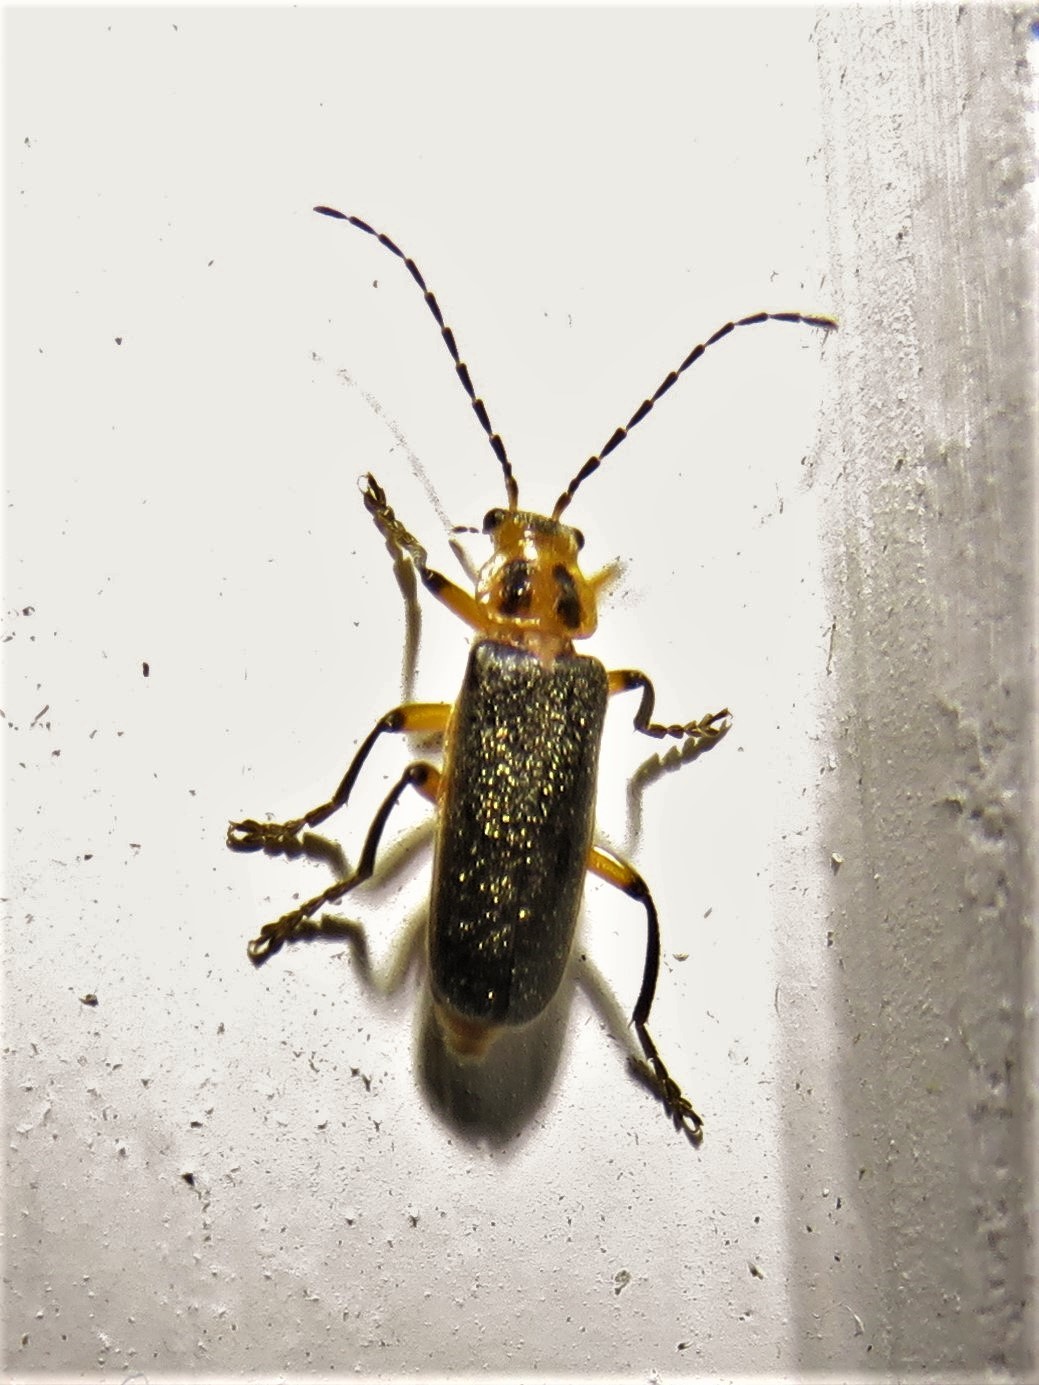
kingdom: Animalia
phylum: Arthropoda
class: Insecta
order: Coleoptera
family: Cantharidae
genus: Atalantycha
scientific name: Atalantycha bilineata
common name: Two-lined leatherwing
